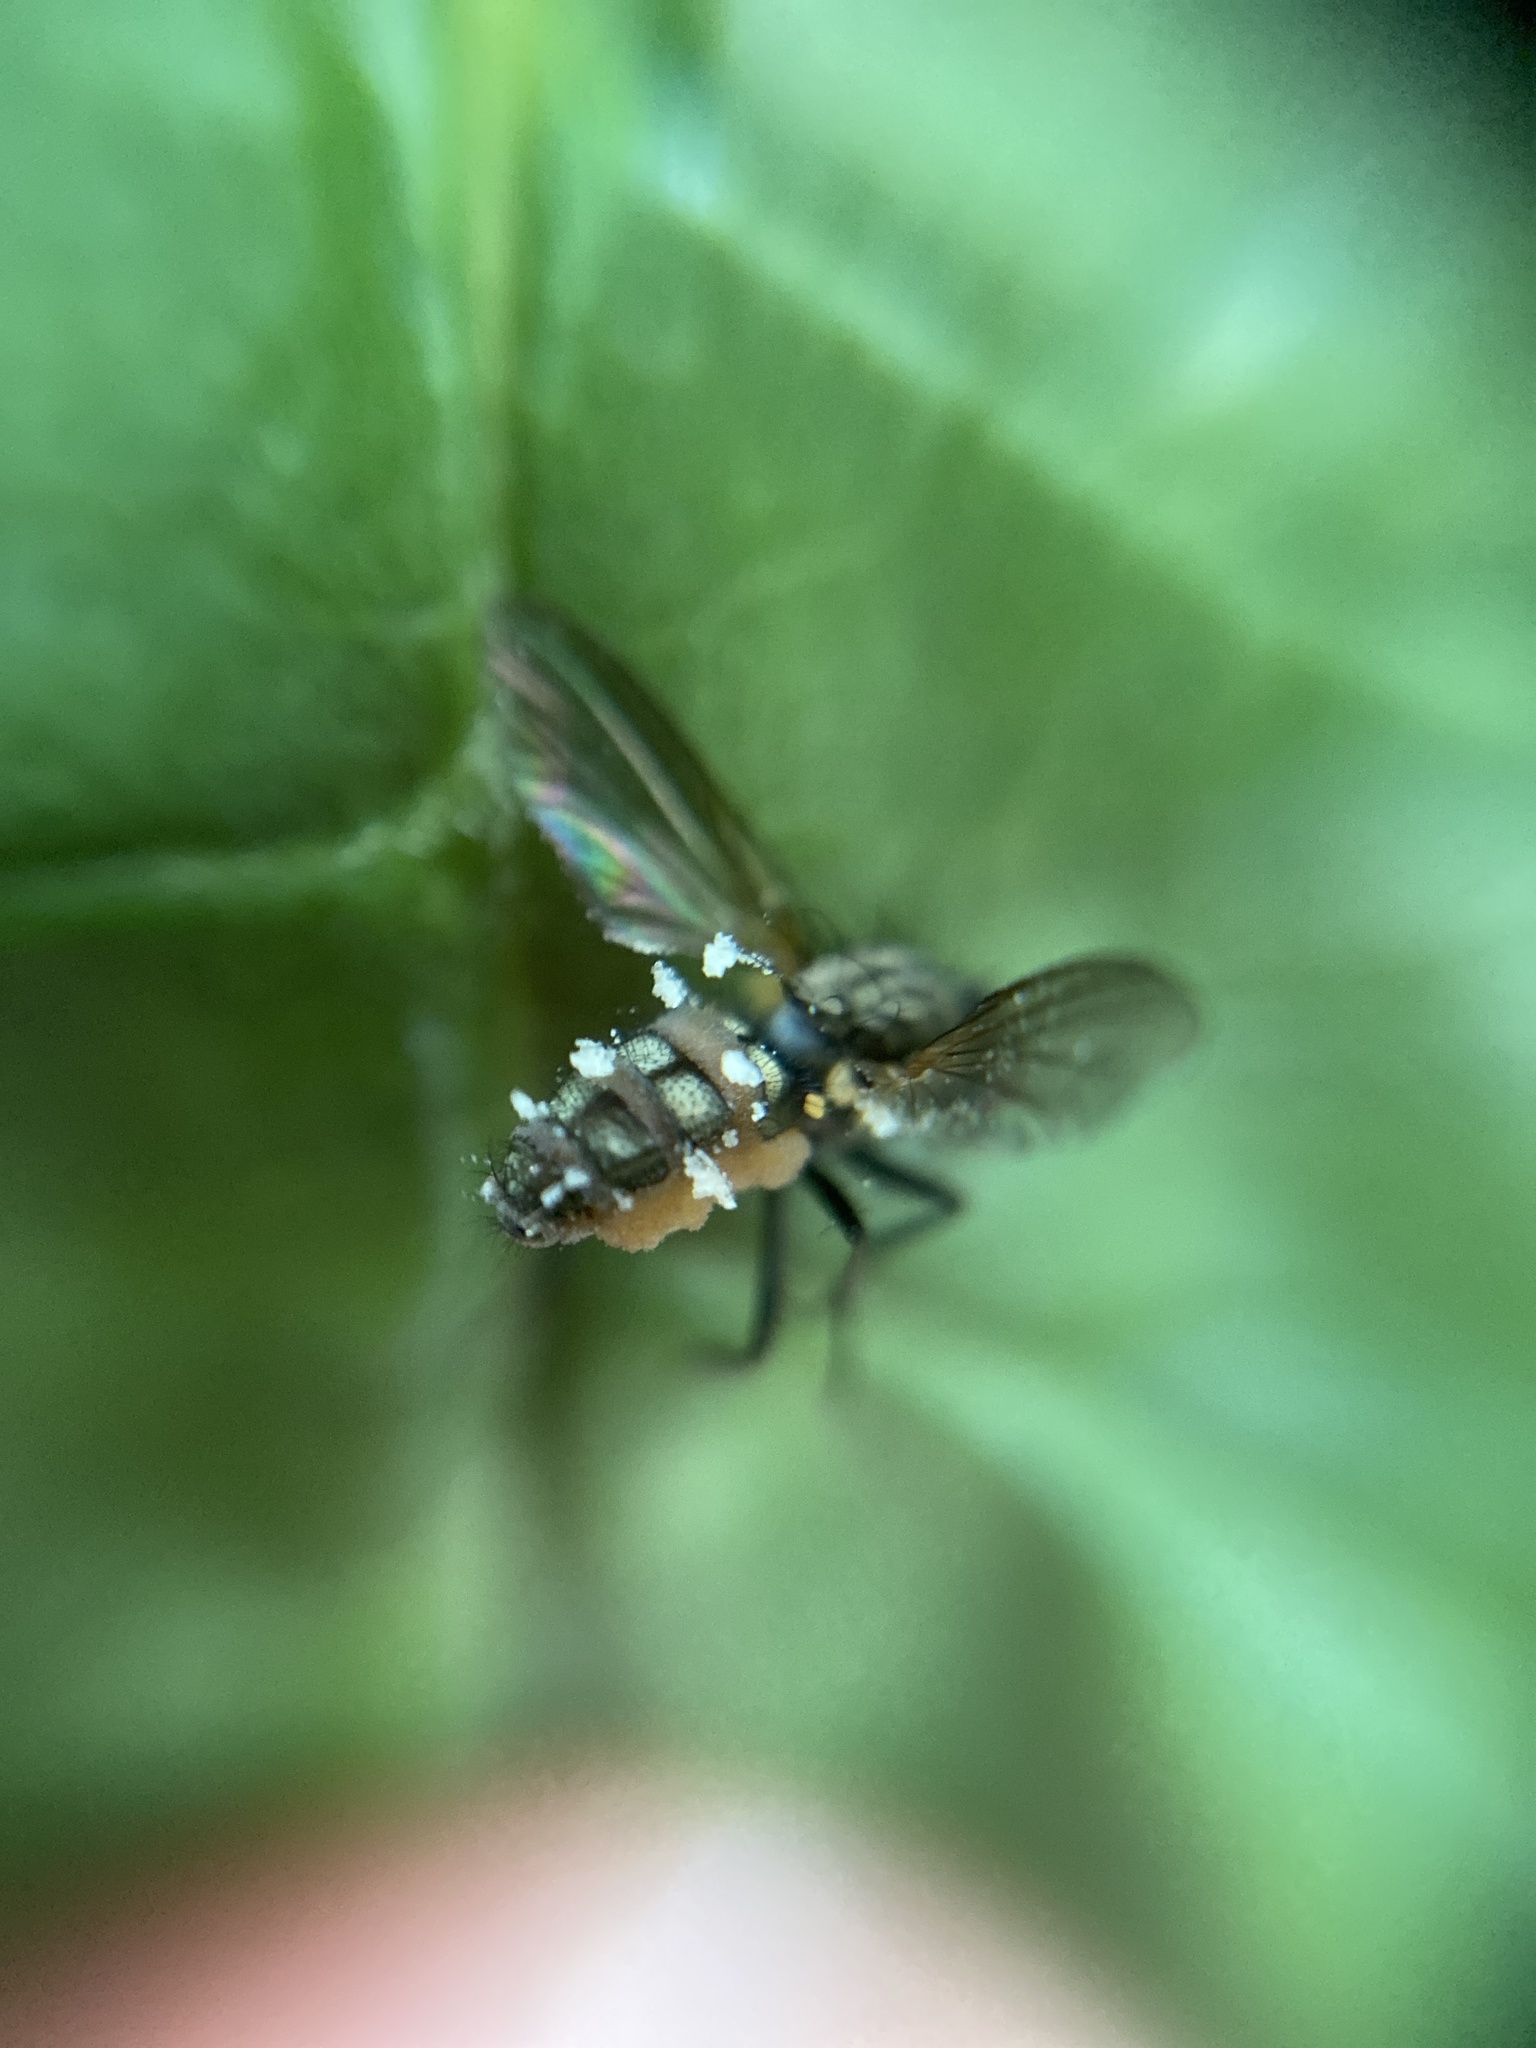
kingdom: Fungi
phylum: Entomophthoromycota
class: Entomophthoromycetes
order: Entomophthorales
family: Entomophthoraceae
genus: Entomophthora
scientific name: Entomophthora
